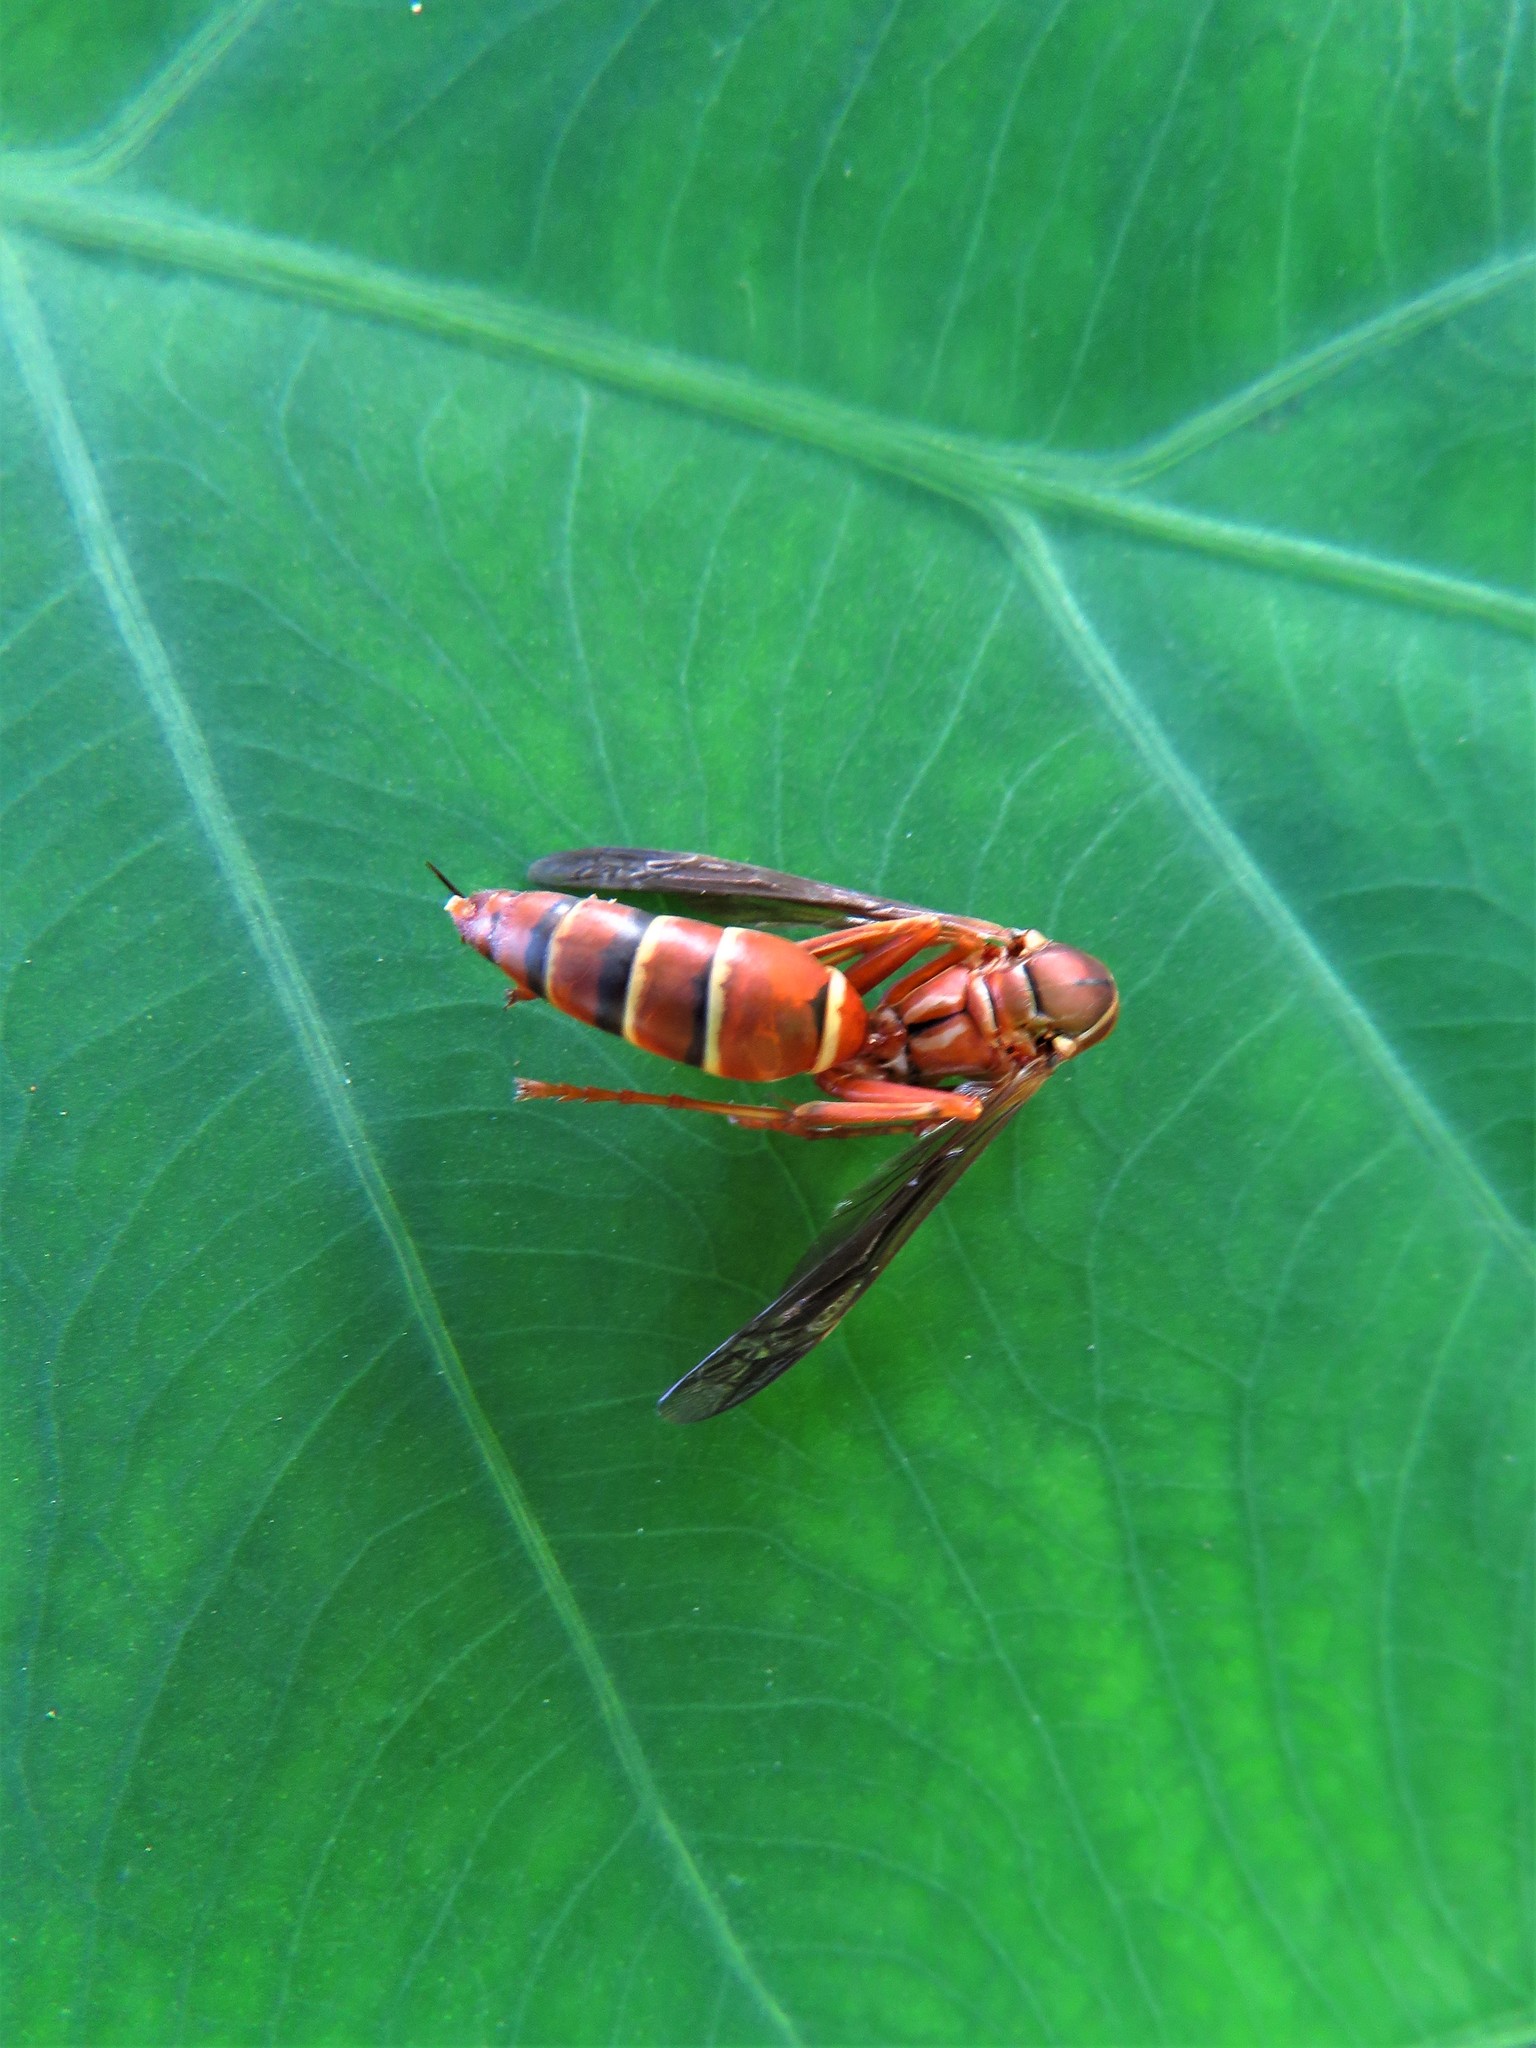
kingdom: Animalia
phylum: Arthropoda
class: Insecta
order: Hymenoptera
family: Eumenidae
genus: Polistes
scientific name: Polistes bellicosus
